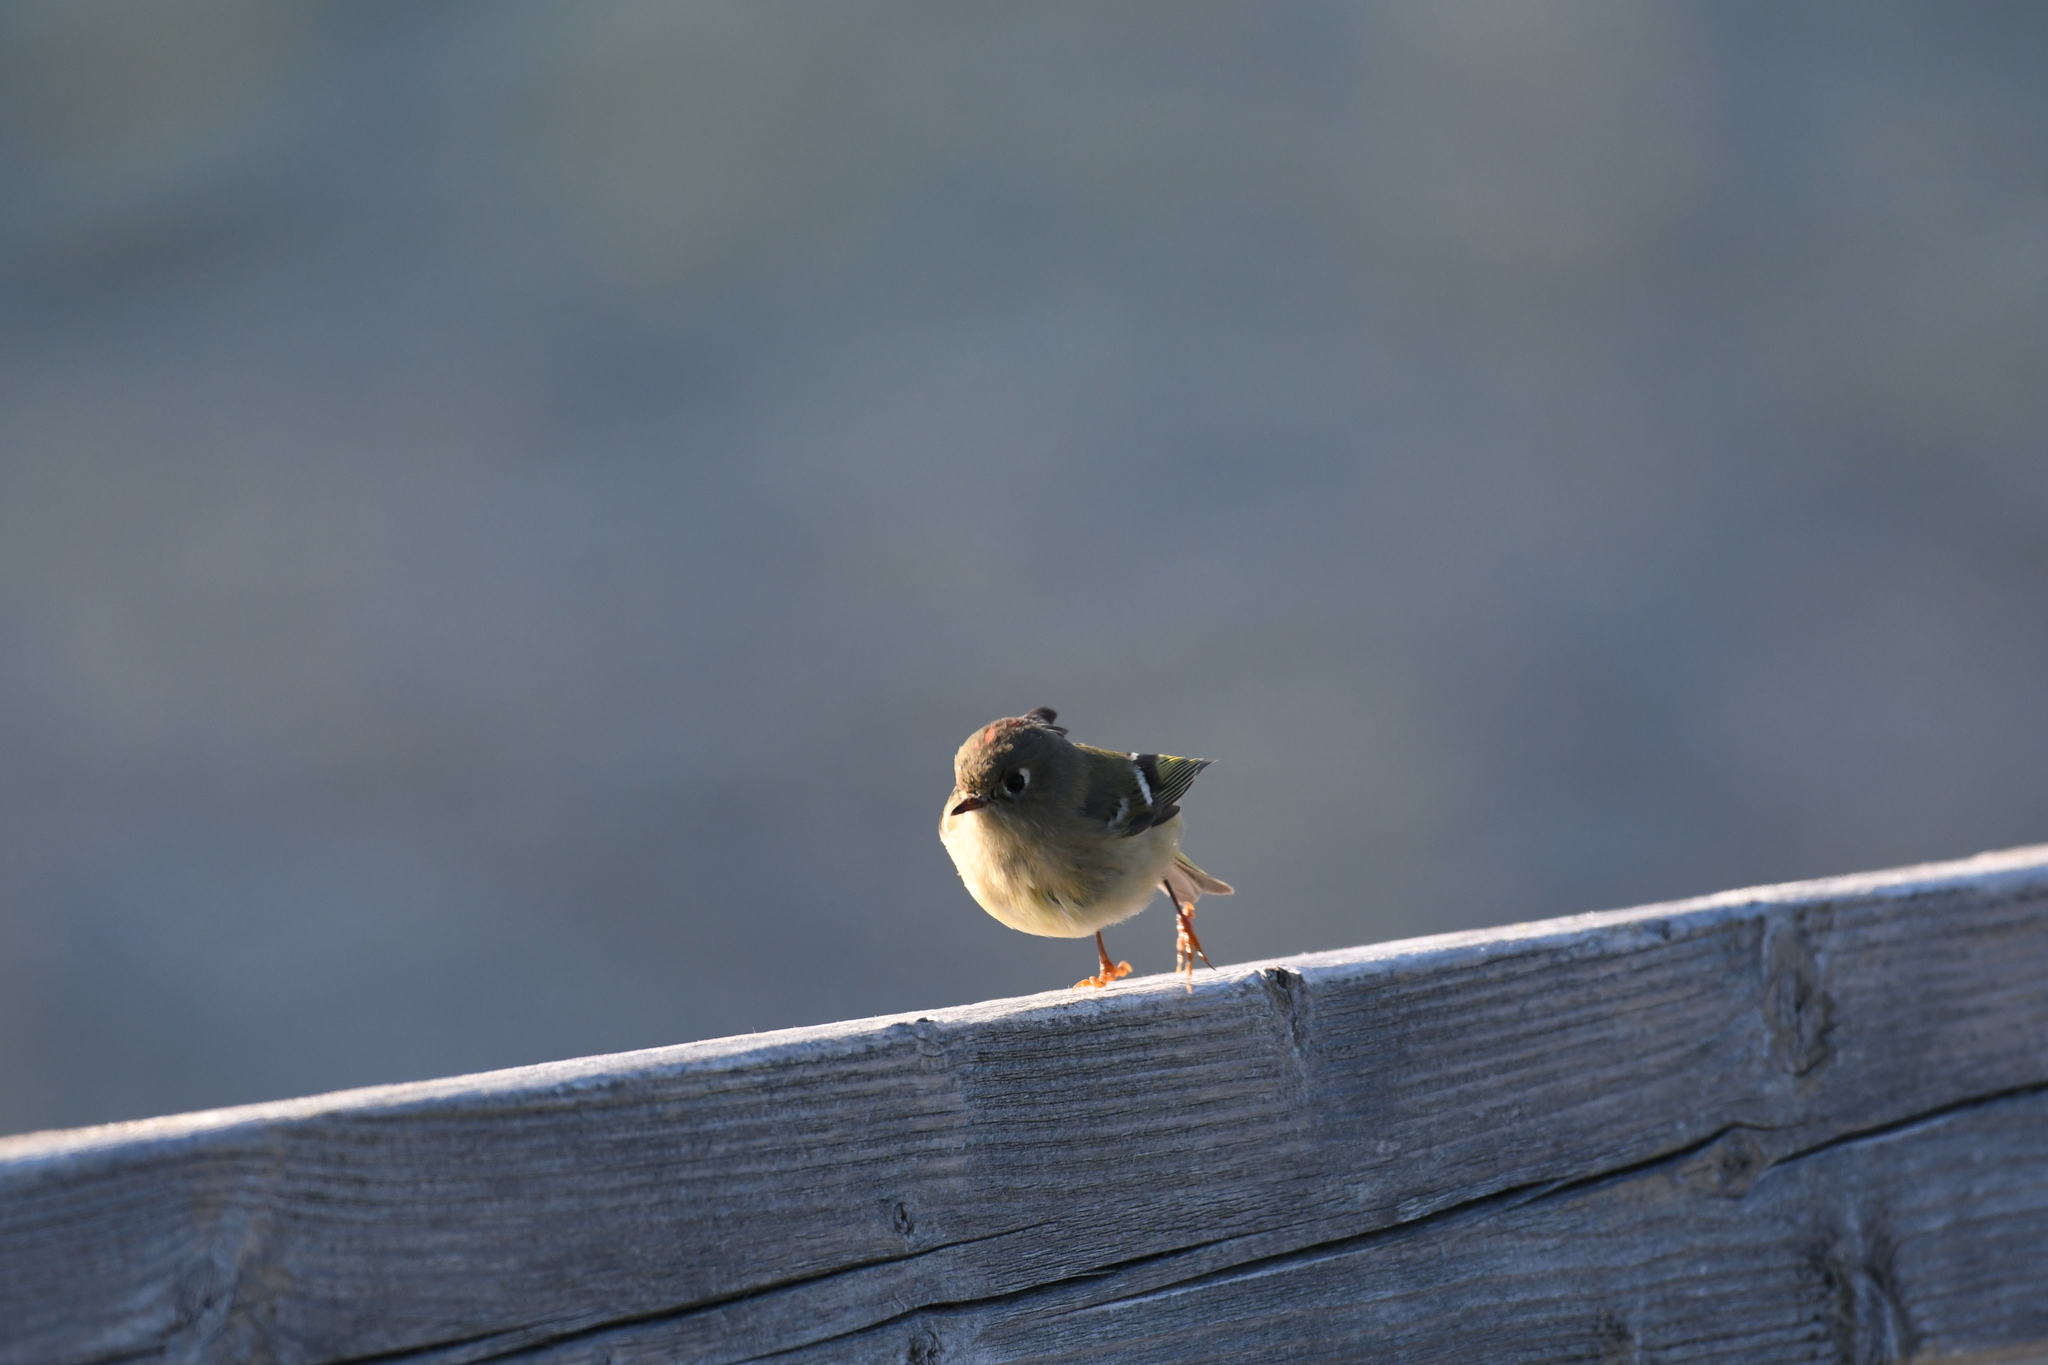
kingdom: Animalia
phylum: Chordata
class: Aves
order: Passeriformes
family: Regulidae
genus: Regulus
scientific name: Regulus calendula
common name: Ruby-crowned kinglet
